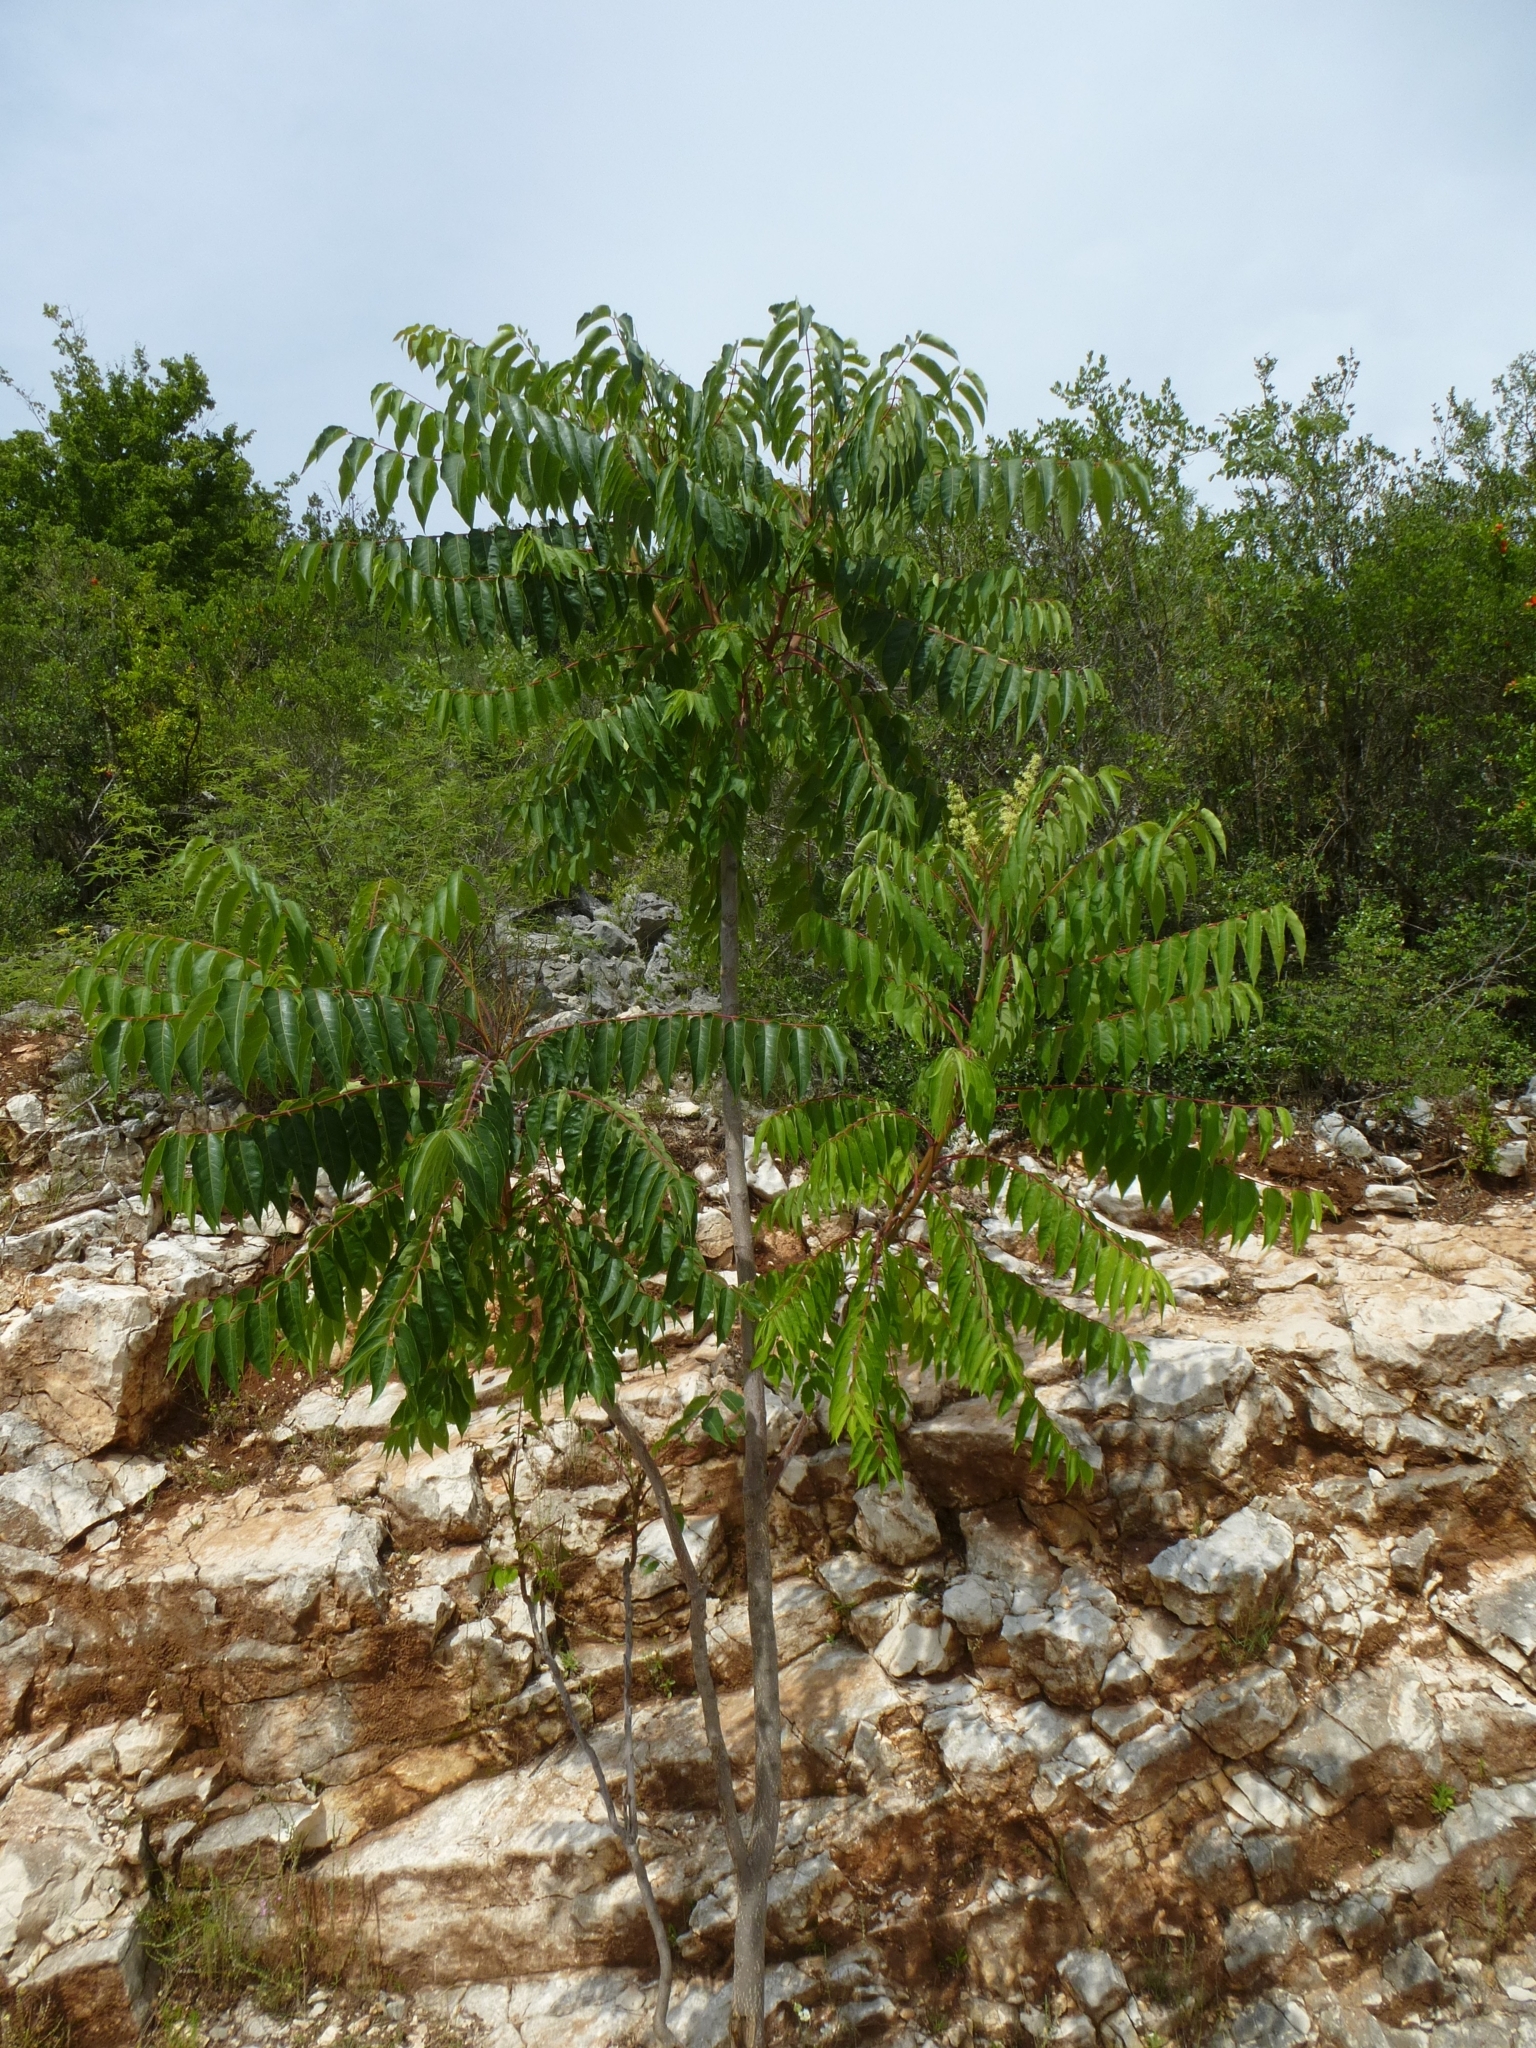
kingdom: Plantae
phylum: Tracheophyta
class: Magnoliopsida
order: Sapindales
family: Simaroubaceae
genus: Ailanthus
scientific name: Ailanthus altissima
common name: Tree-of-heaven
